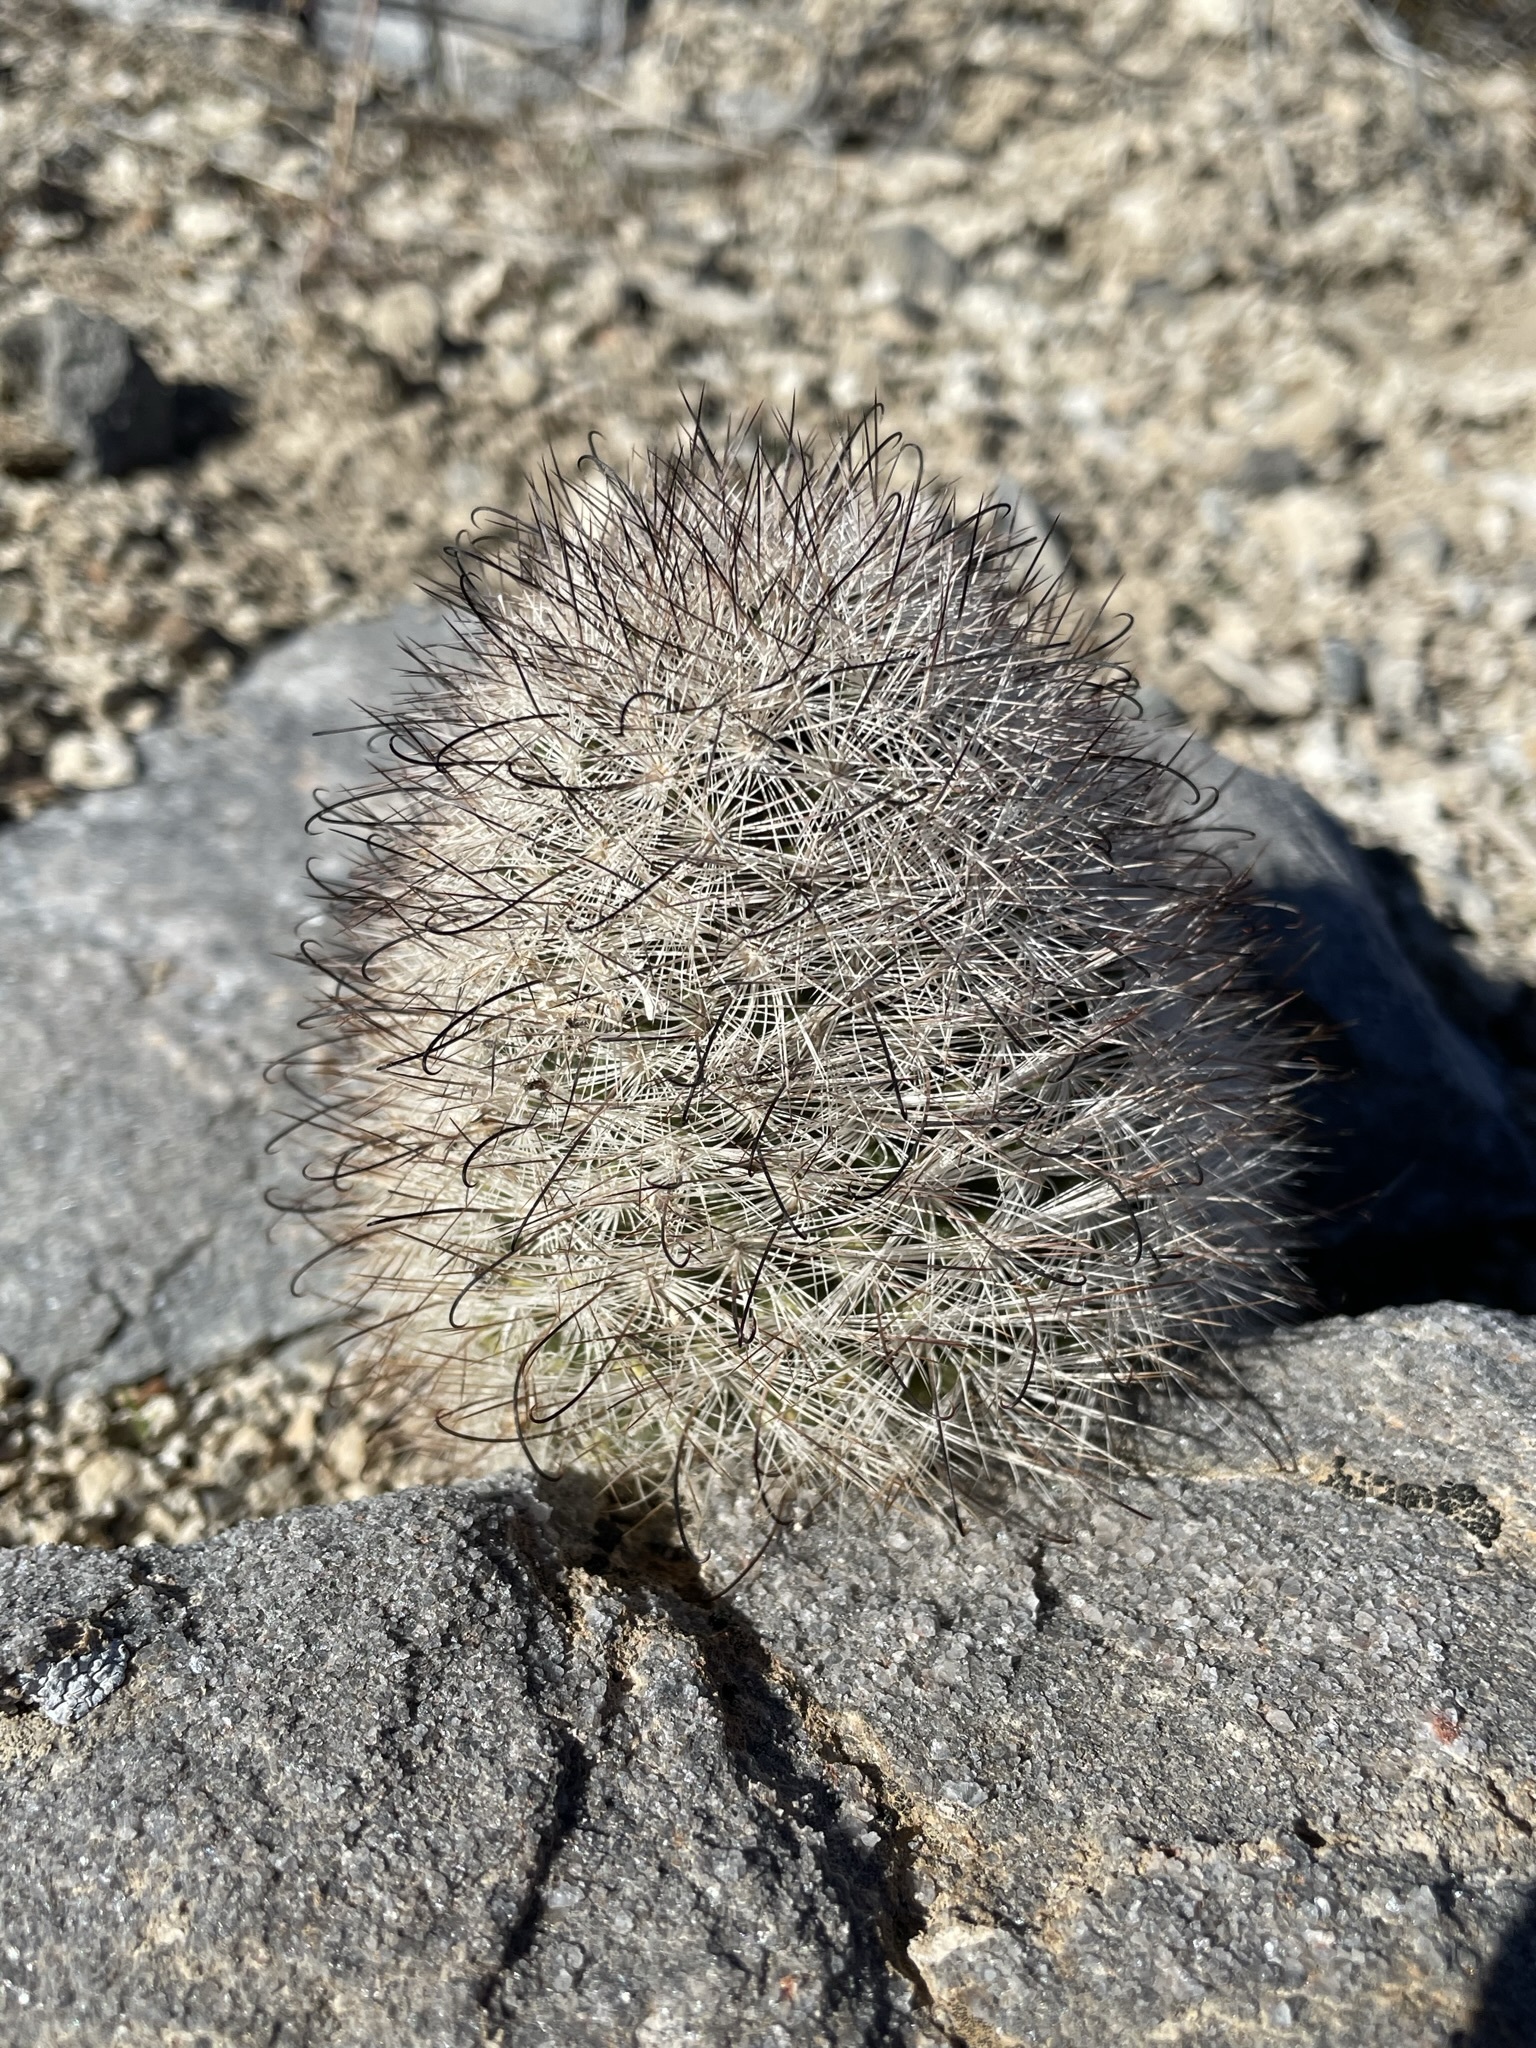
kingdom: Plantae
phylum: Tracheophyta
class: Magnoliopsida
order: Caryophyllales
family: Cactaceae
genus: Cochemiea
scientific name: Cochemiea tetrancistra
